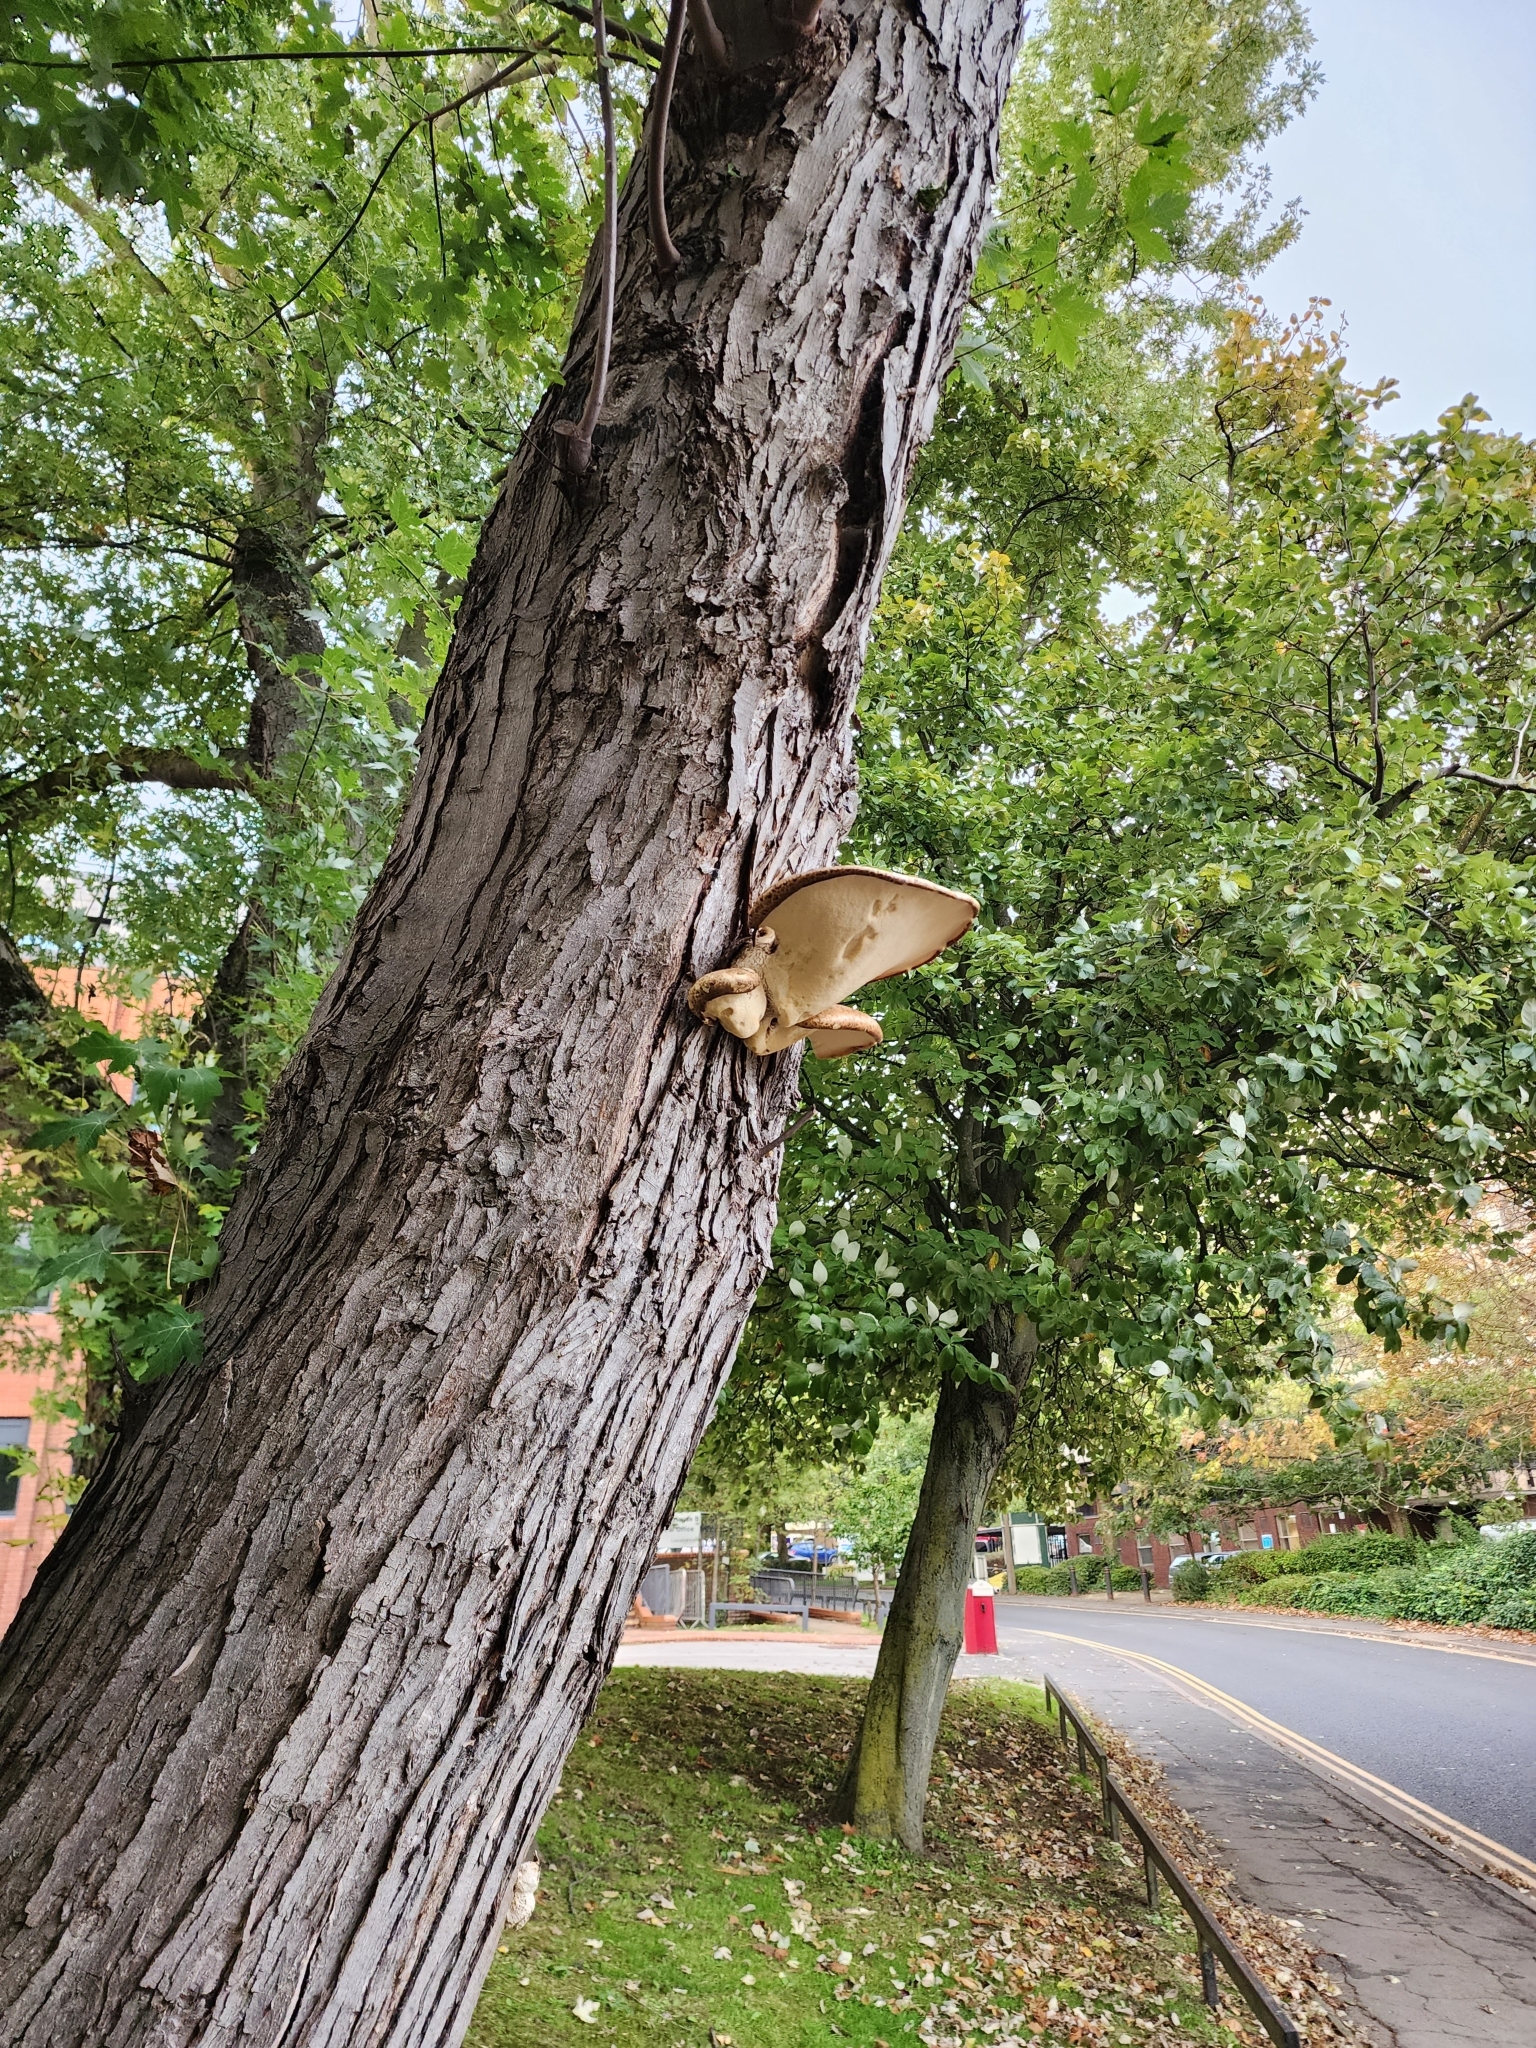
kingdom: Fungi
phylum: Basidiomycota
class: Agaricomycetes
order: Polyporales
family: Polyporaceae
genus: Cerioporus
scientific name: Cerioporus squamosus
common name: Dryad's saddle
